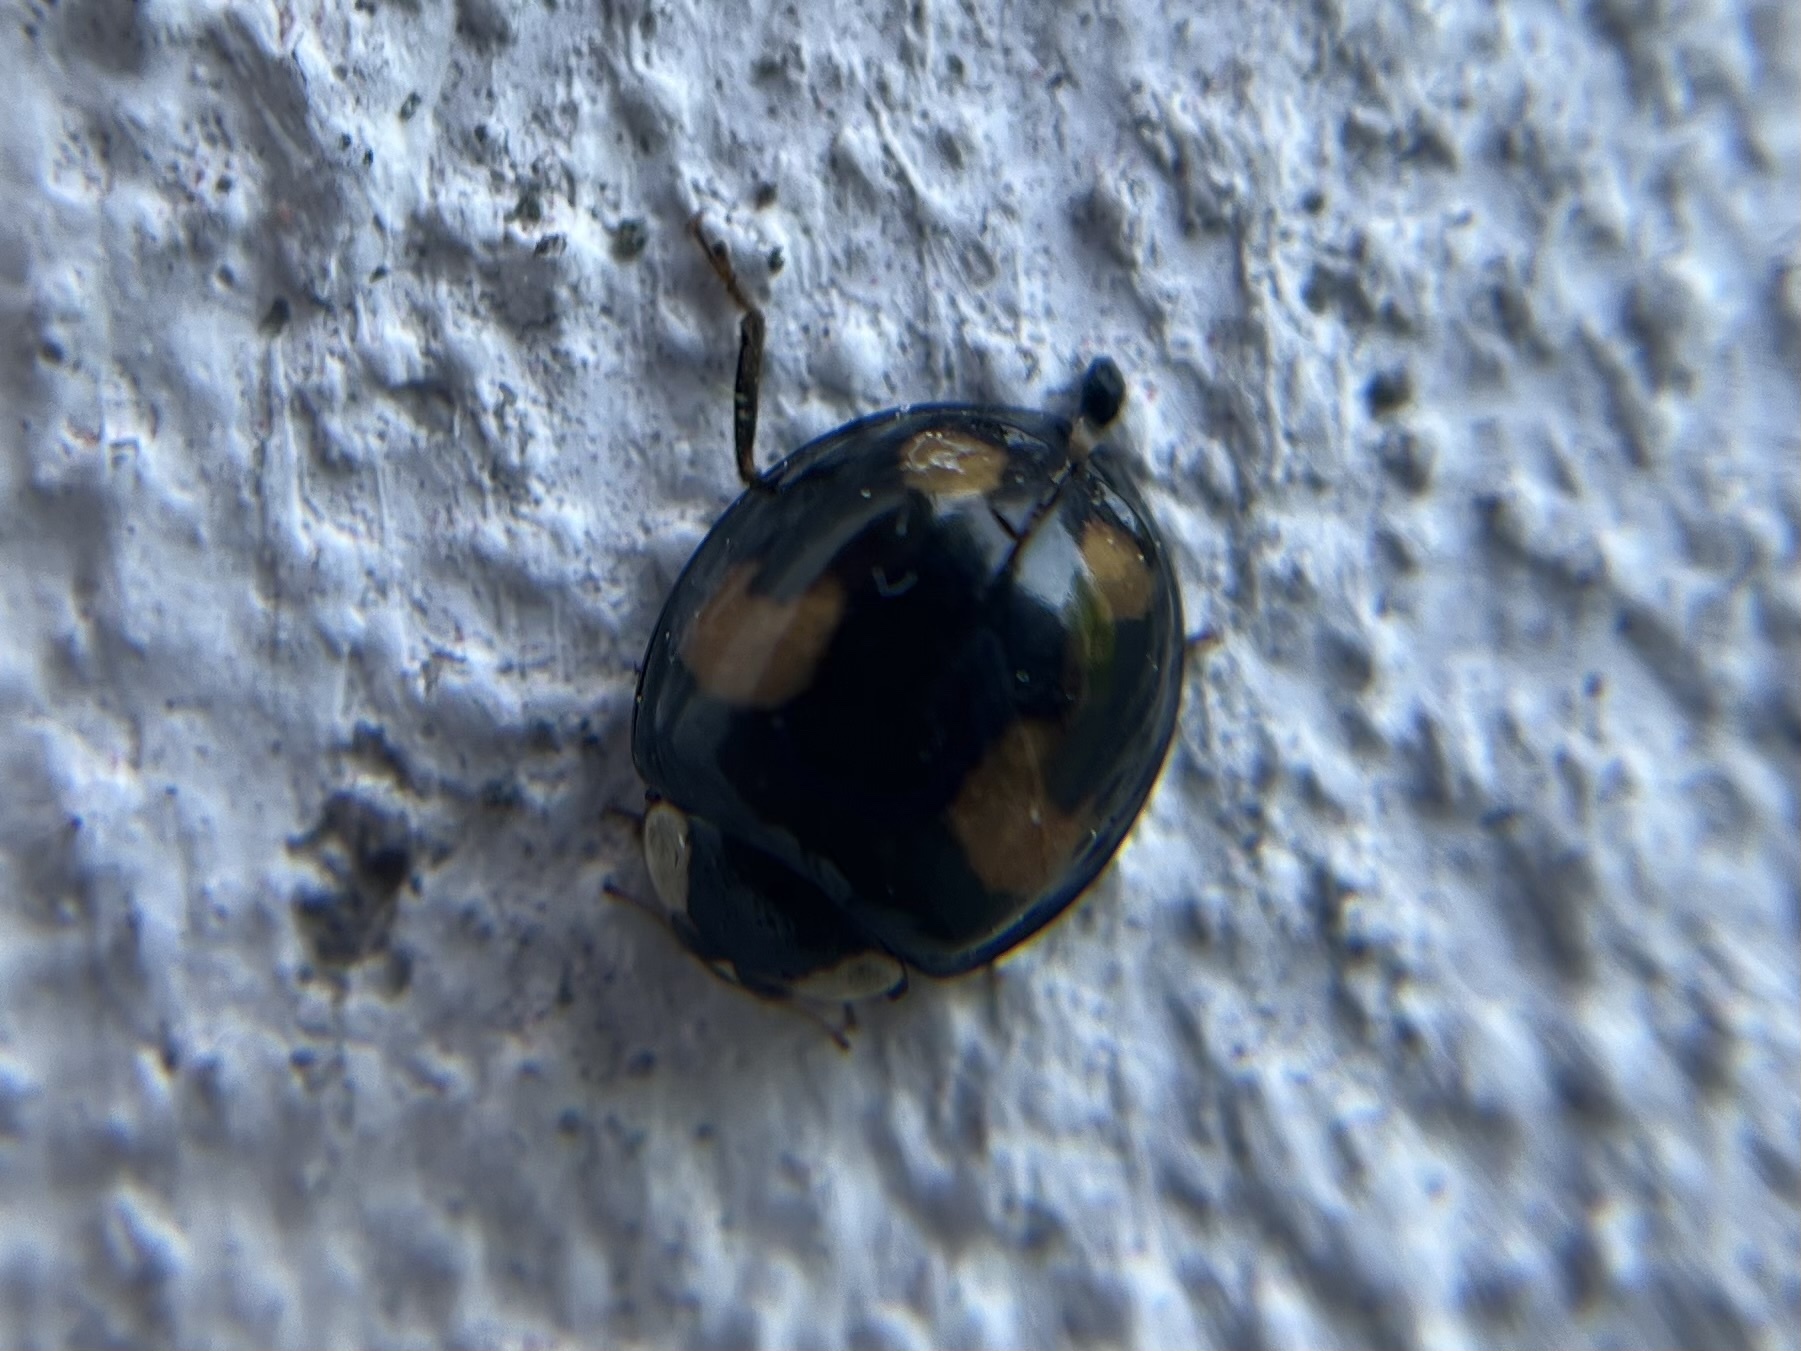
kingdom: Animalia
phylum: Arthropoda
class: Insecta
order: Coleoptera
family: Coccinellidae
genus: Harmonia
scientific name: Harmonia axyridis
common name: Harlequin ladybird
